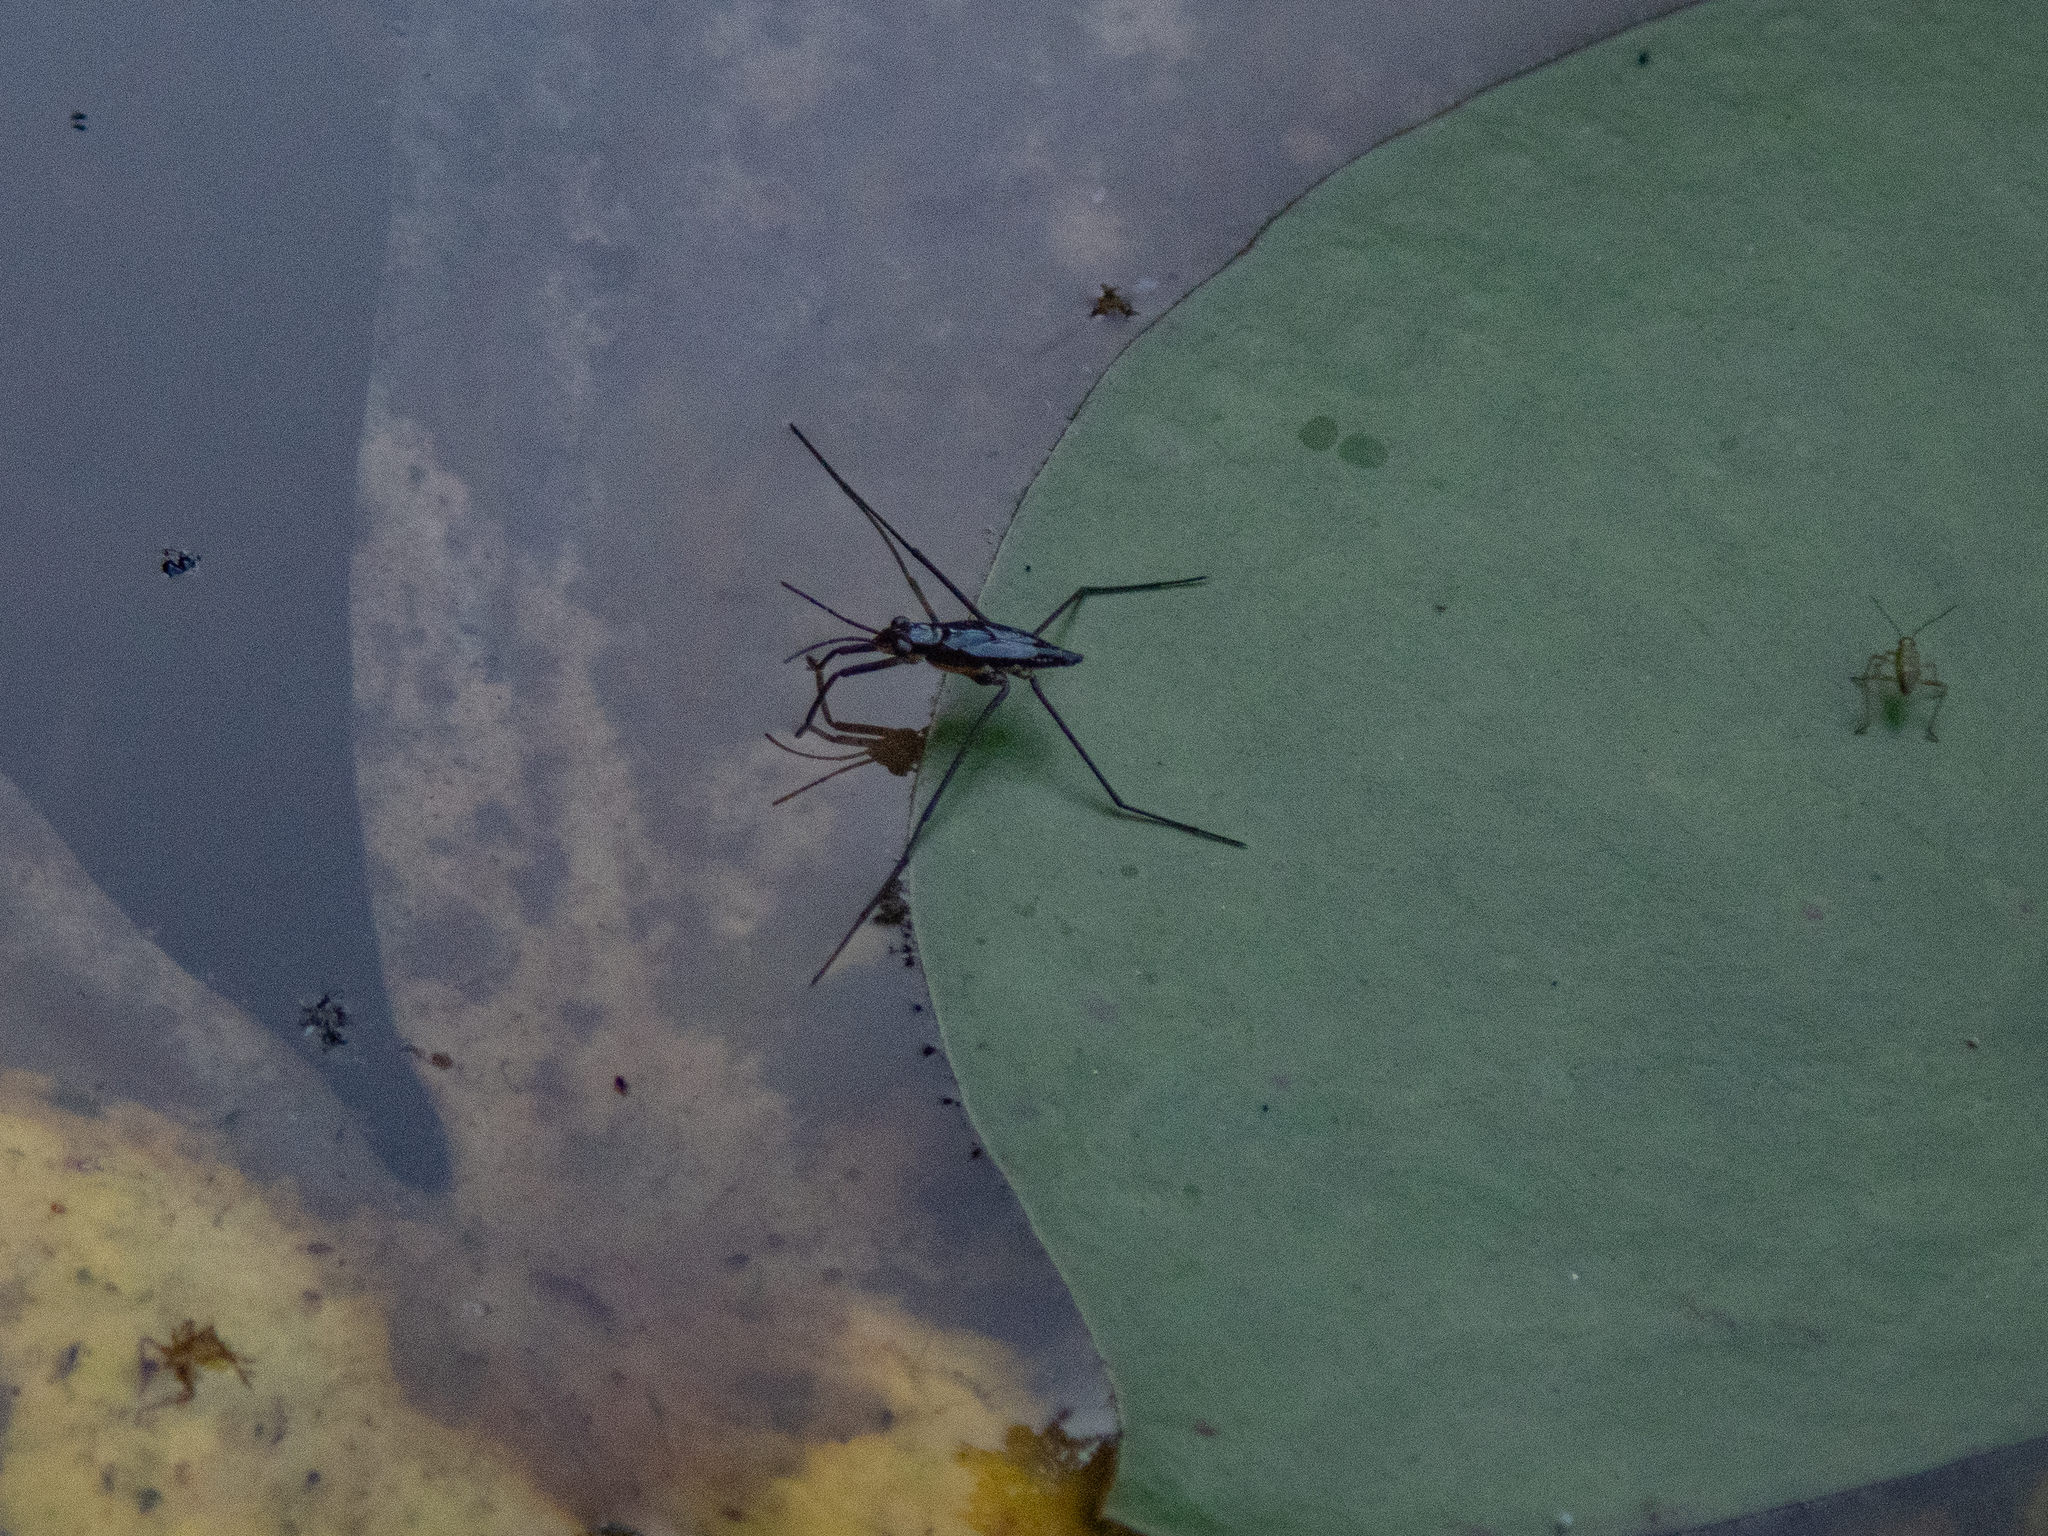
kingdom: Animalia
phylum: Arthropoda
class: Insecta
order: Hemiptera
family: Gerridae
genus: Gerris
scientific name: Gerris
